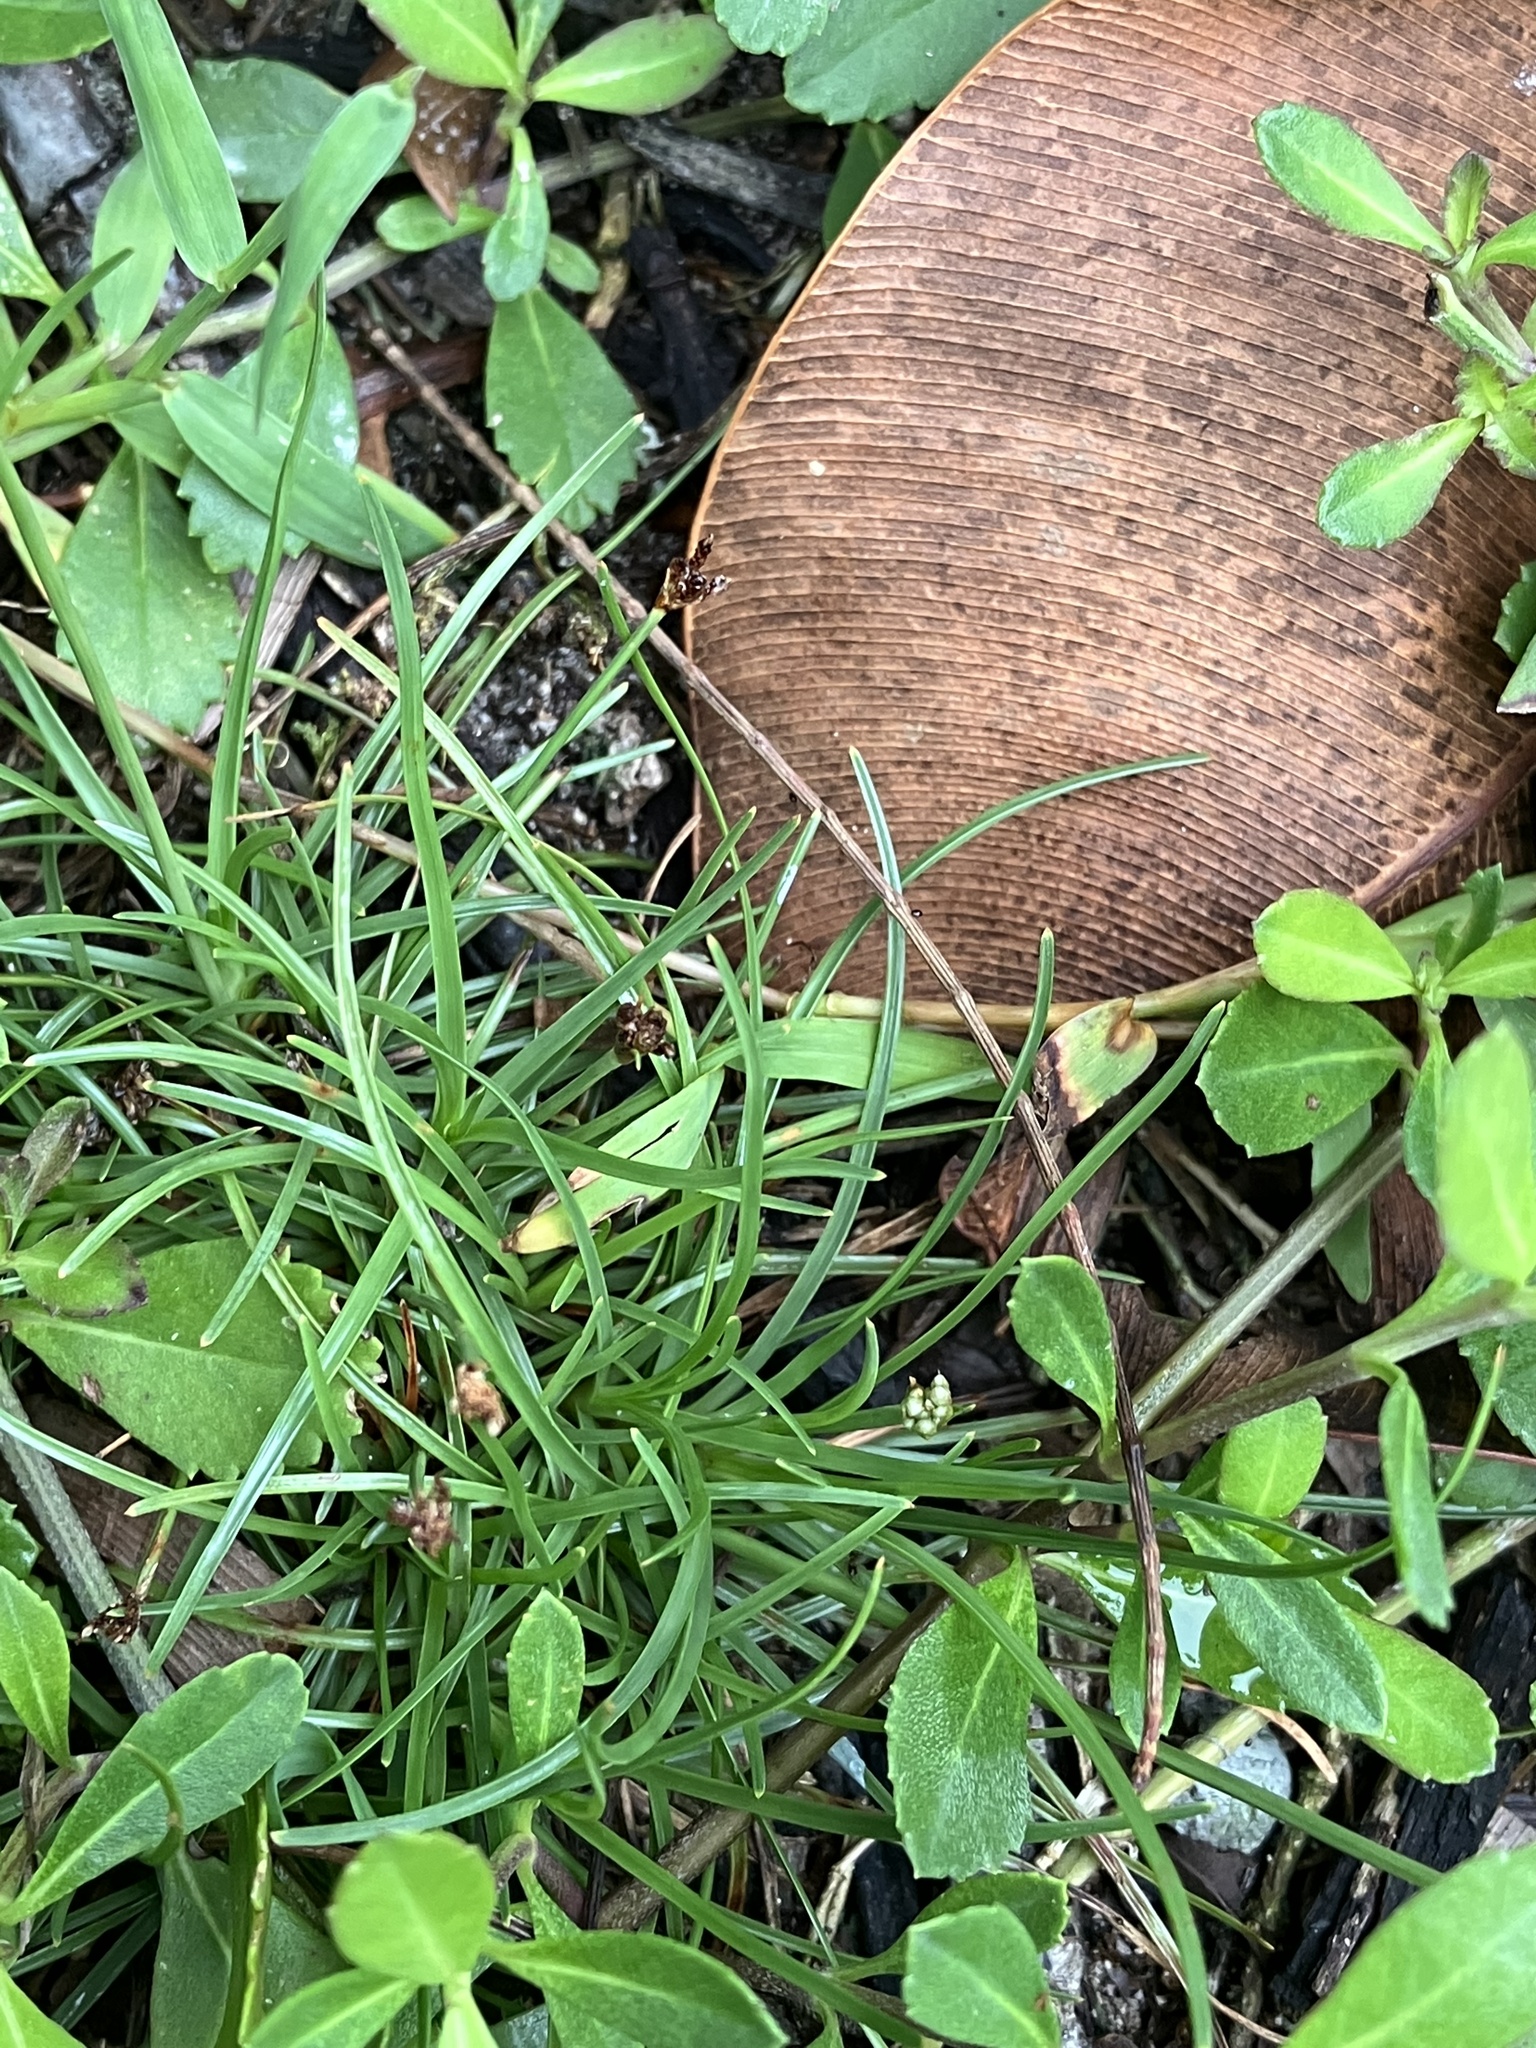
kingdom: Plantae
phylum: Tracheophyta
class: Liliopsida
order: Poales
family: Cyperaceae
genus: Fimbristylis
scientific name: Fimbristylis cymosa
